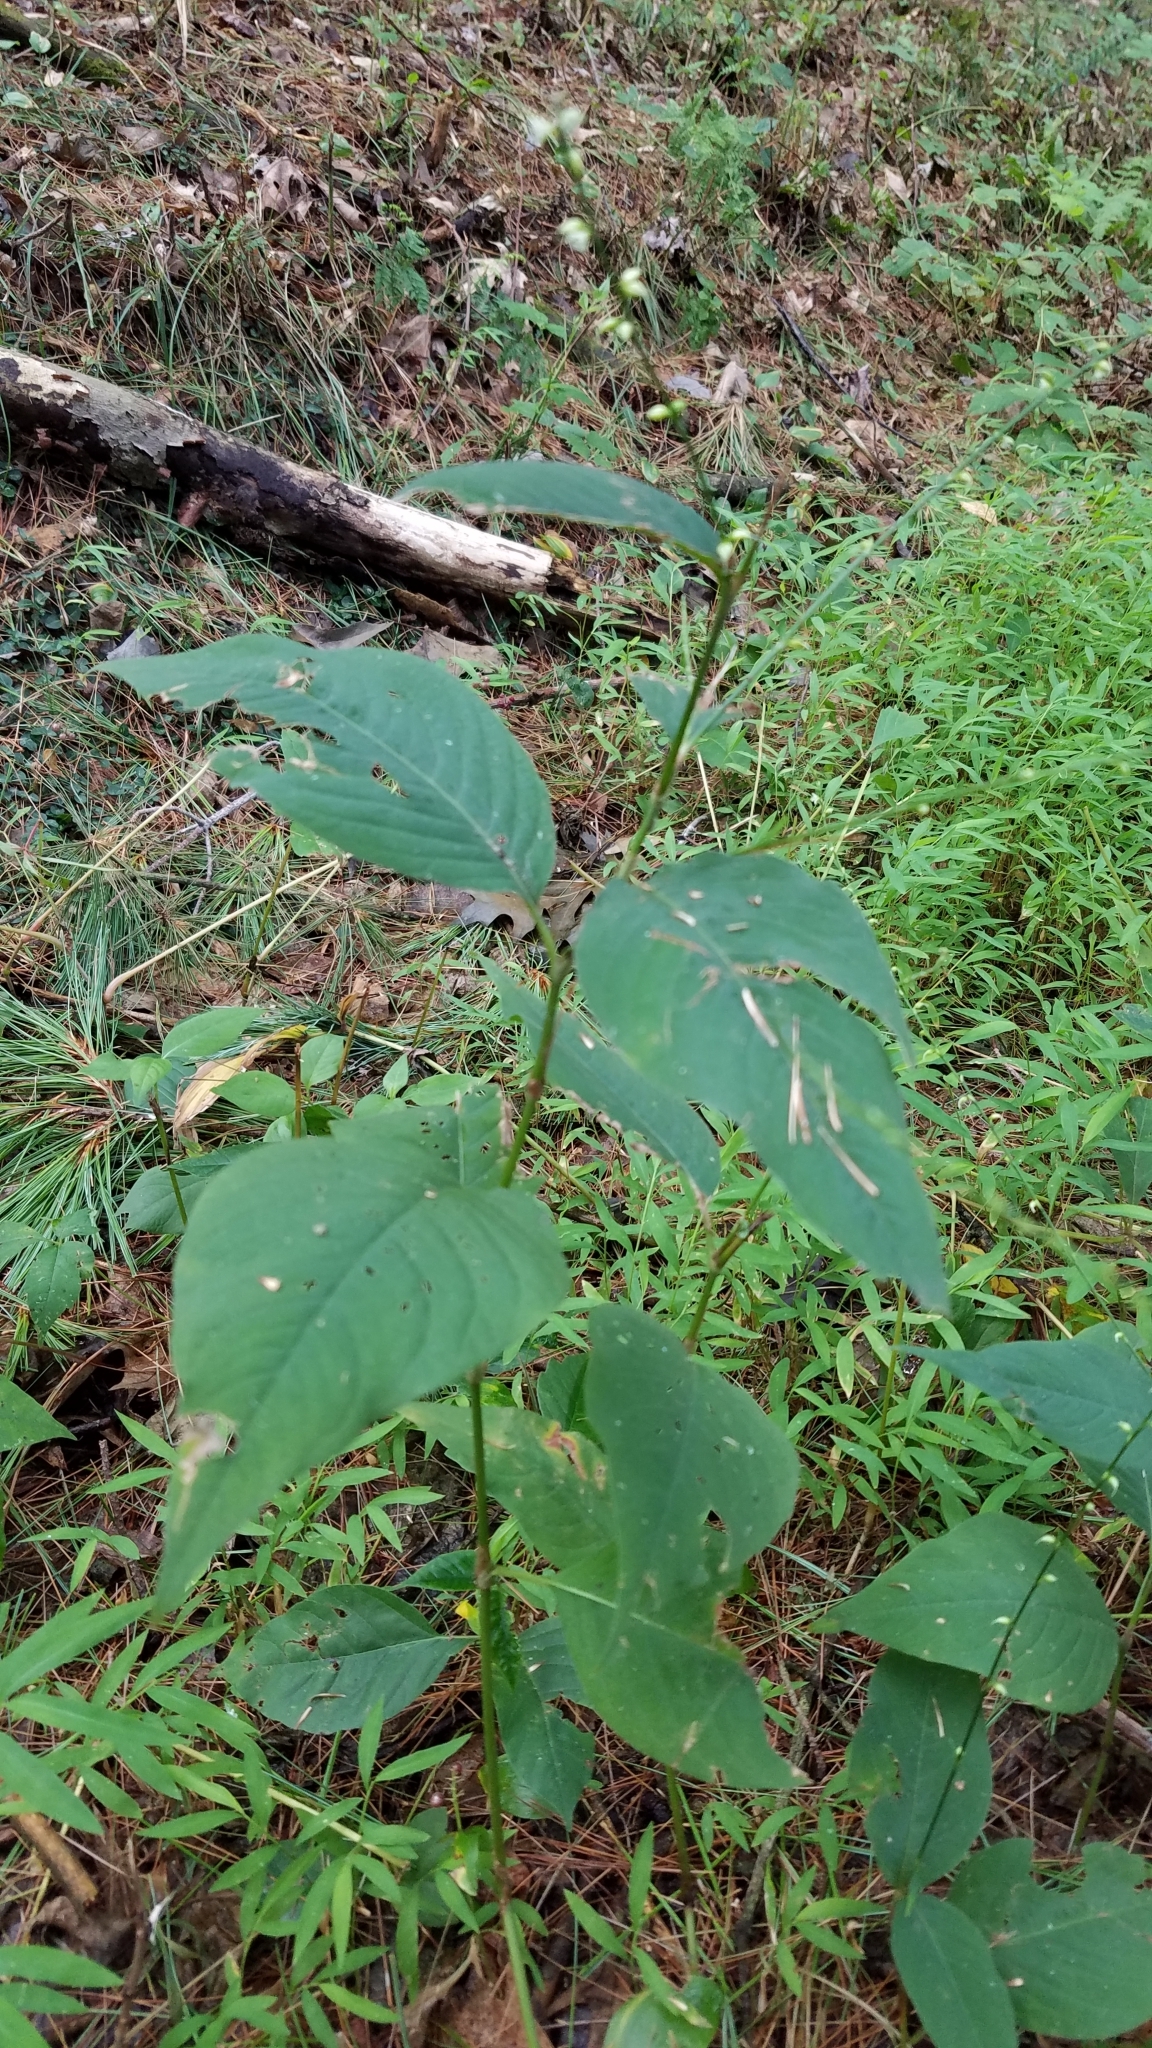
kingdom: Plantae
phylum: Tracheophyta
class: Magnoliopsida
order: Caryophyllales
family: Polygonaceae
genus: Persicaria
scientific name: Persicaria virginiana
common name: Jumpseed
